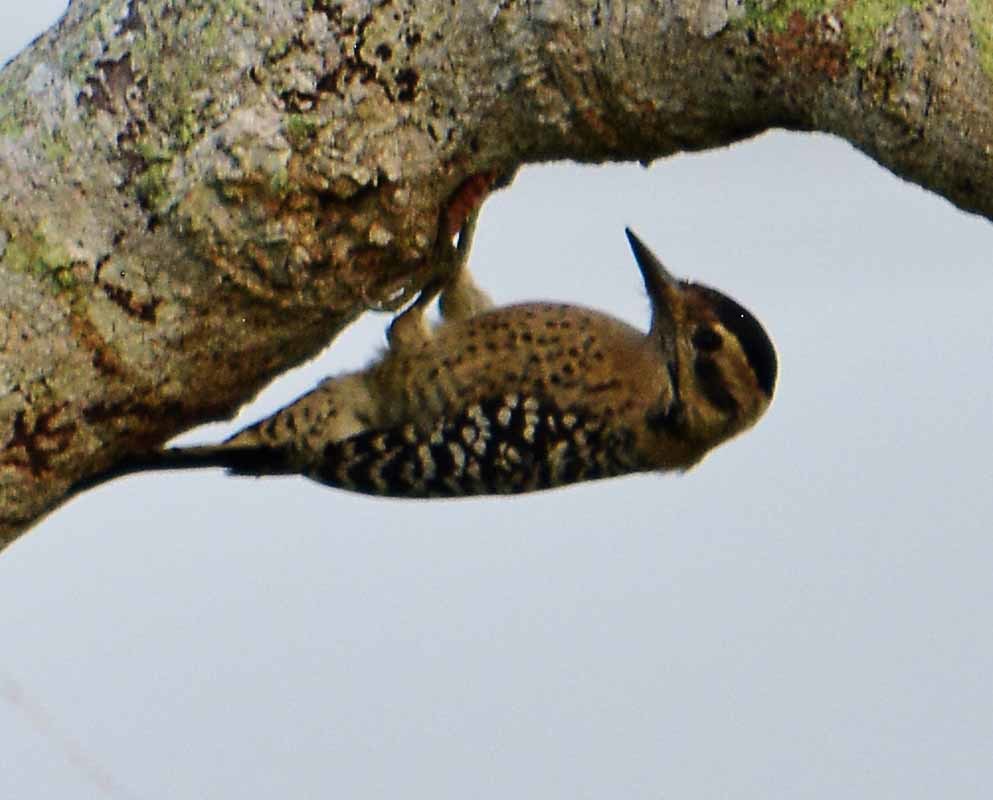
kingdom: Animalia
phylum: Chordata
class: Aves
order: Piciformes
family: Picidae
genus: Dryobates
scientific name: Dryobates scalaris
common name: Ladder-backed woodpecker
